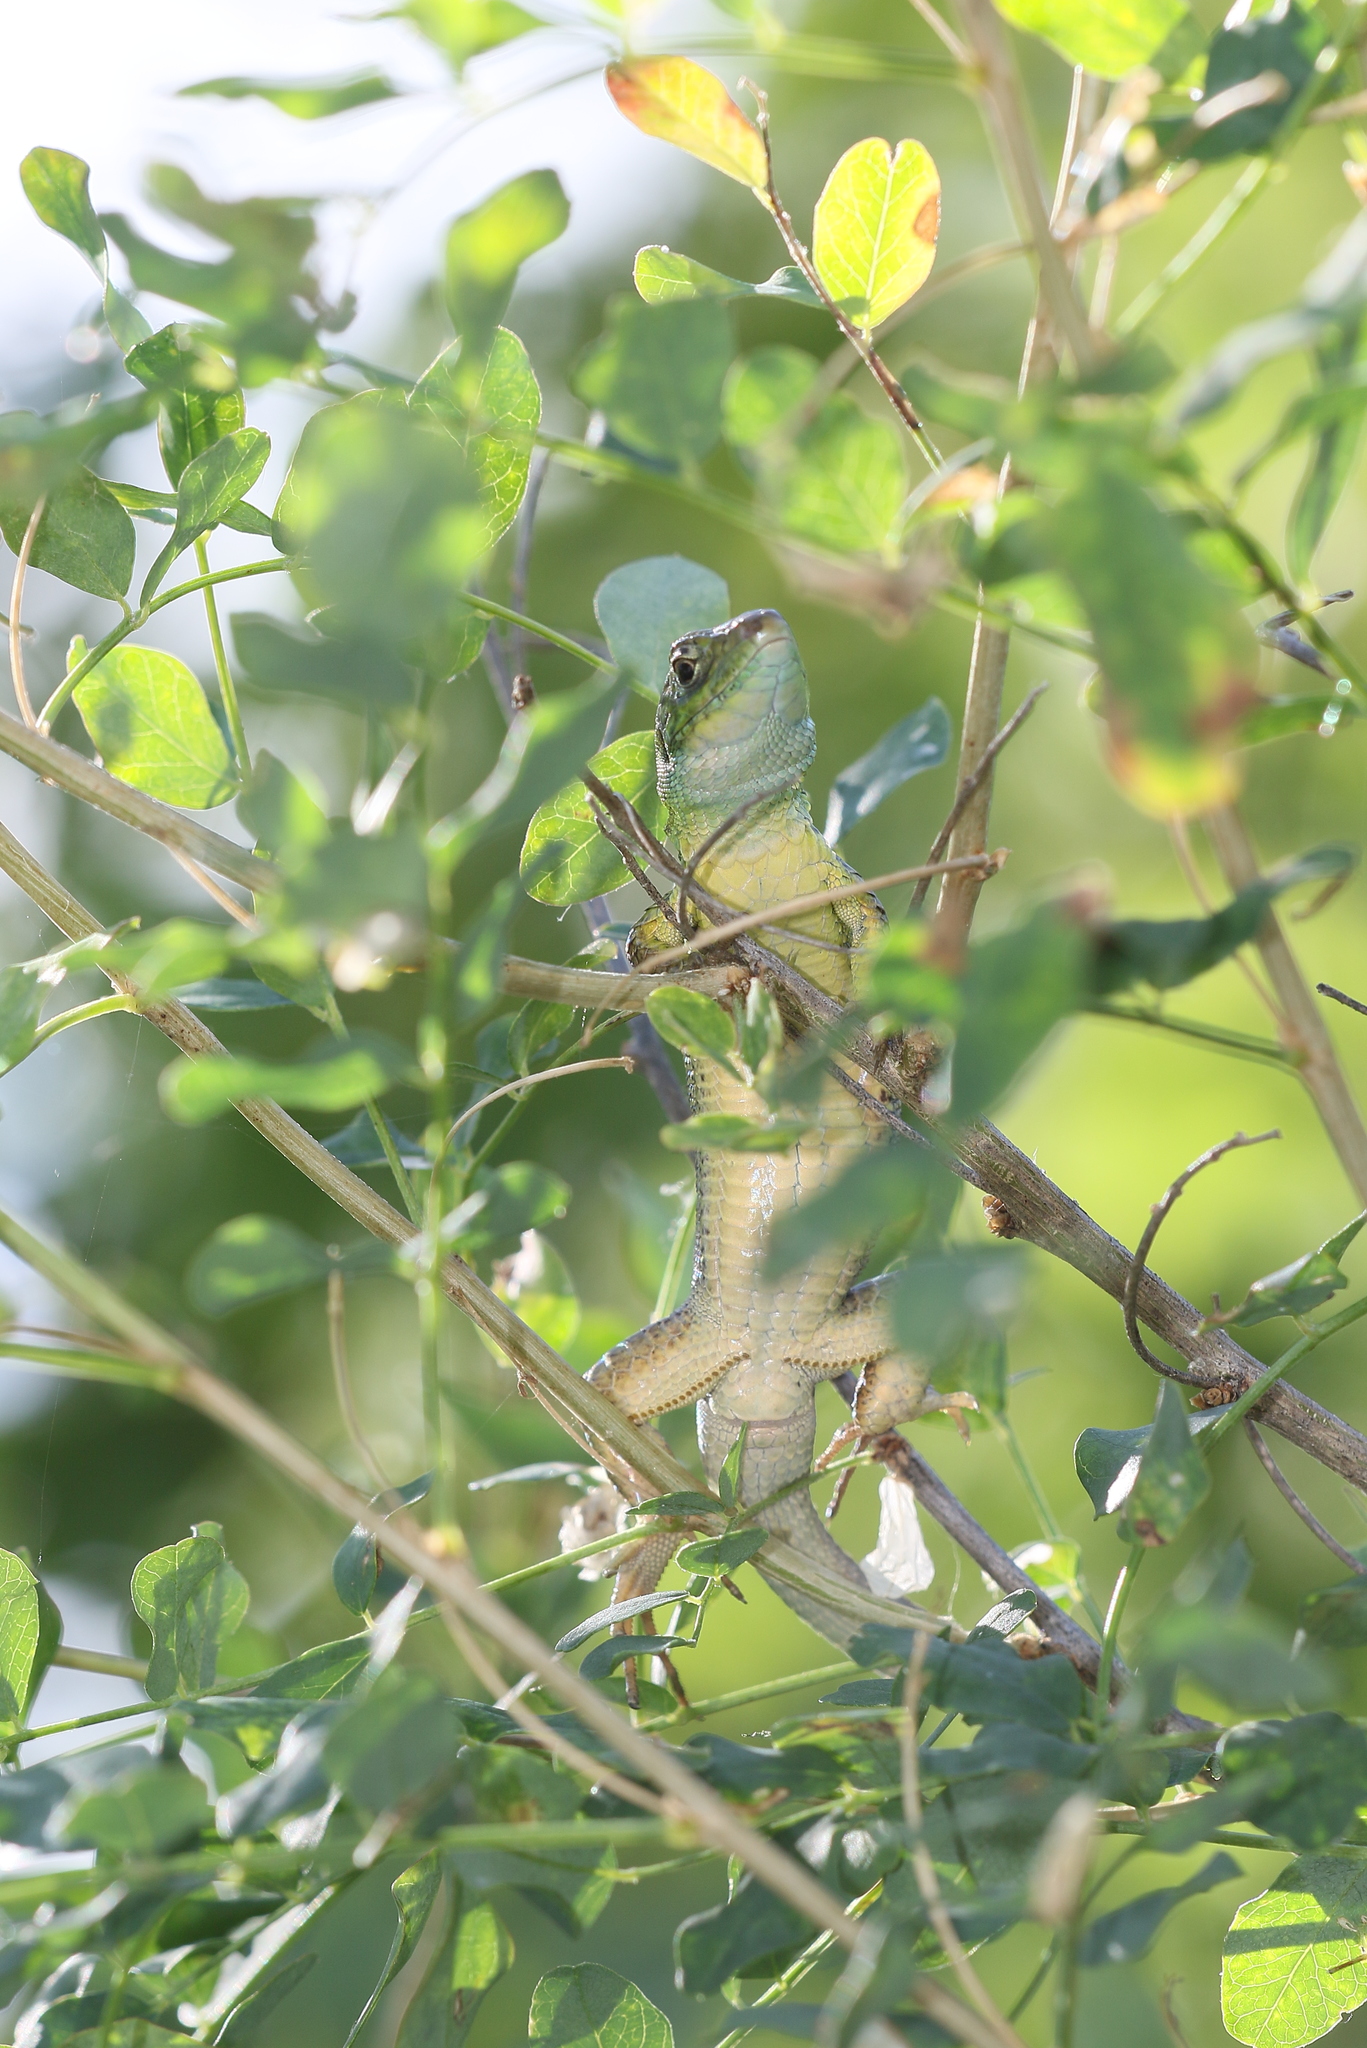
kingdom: Animalia
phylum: Chordata
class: Squamata
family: Lacertidae
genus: Lacerta
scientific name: Lacerta viridis
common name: European green lizard
